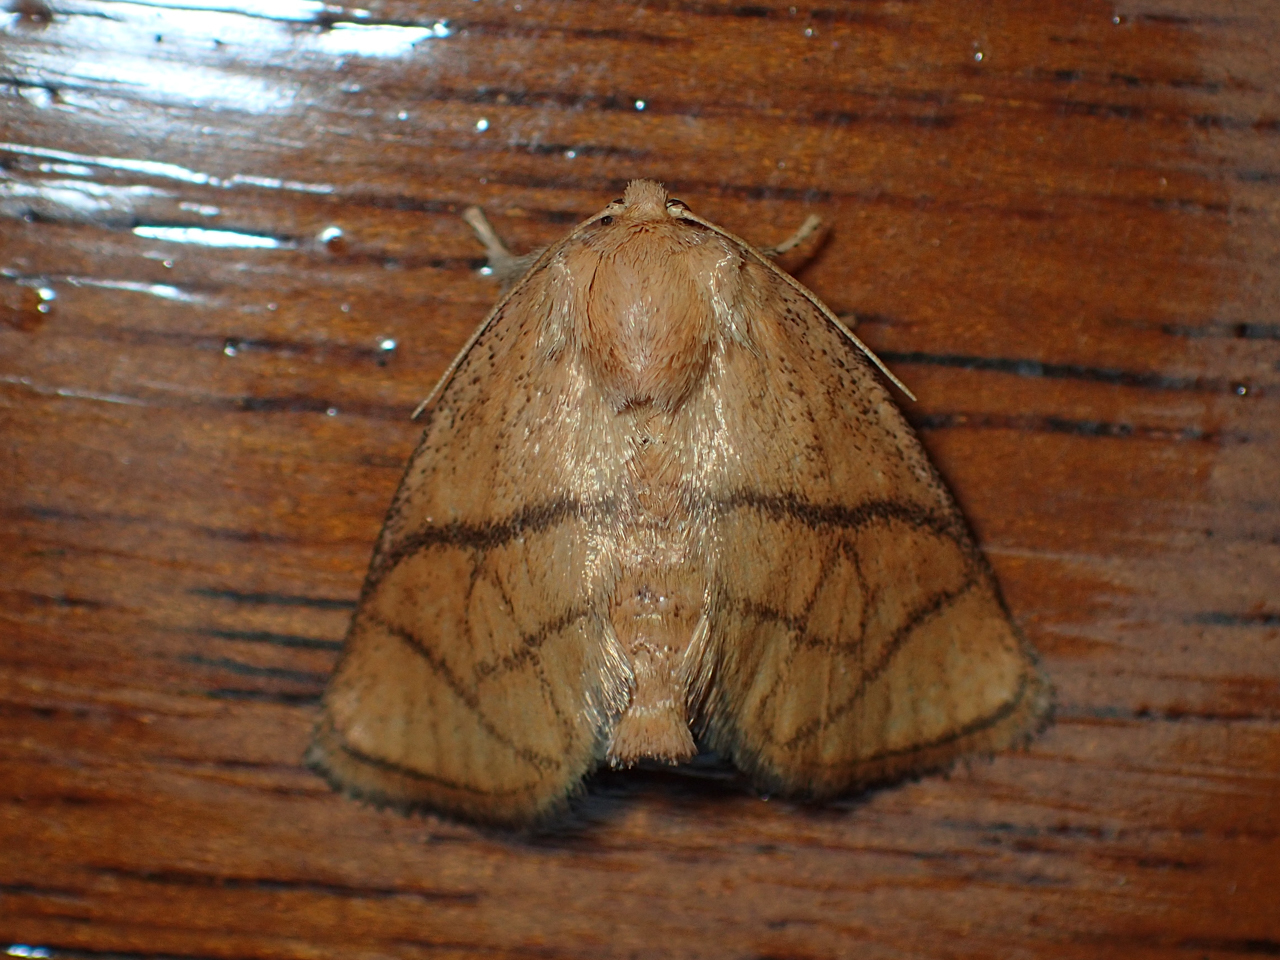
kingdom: Animalia
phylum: Arthropoda
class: Insecta
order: Lepidoptera
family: Limacodidae
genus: Apoda
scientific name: Apoda y-inversa
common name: Yellow-collared slug moth
